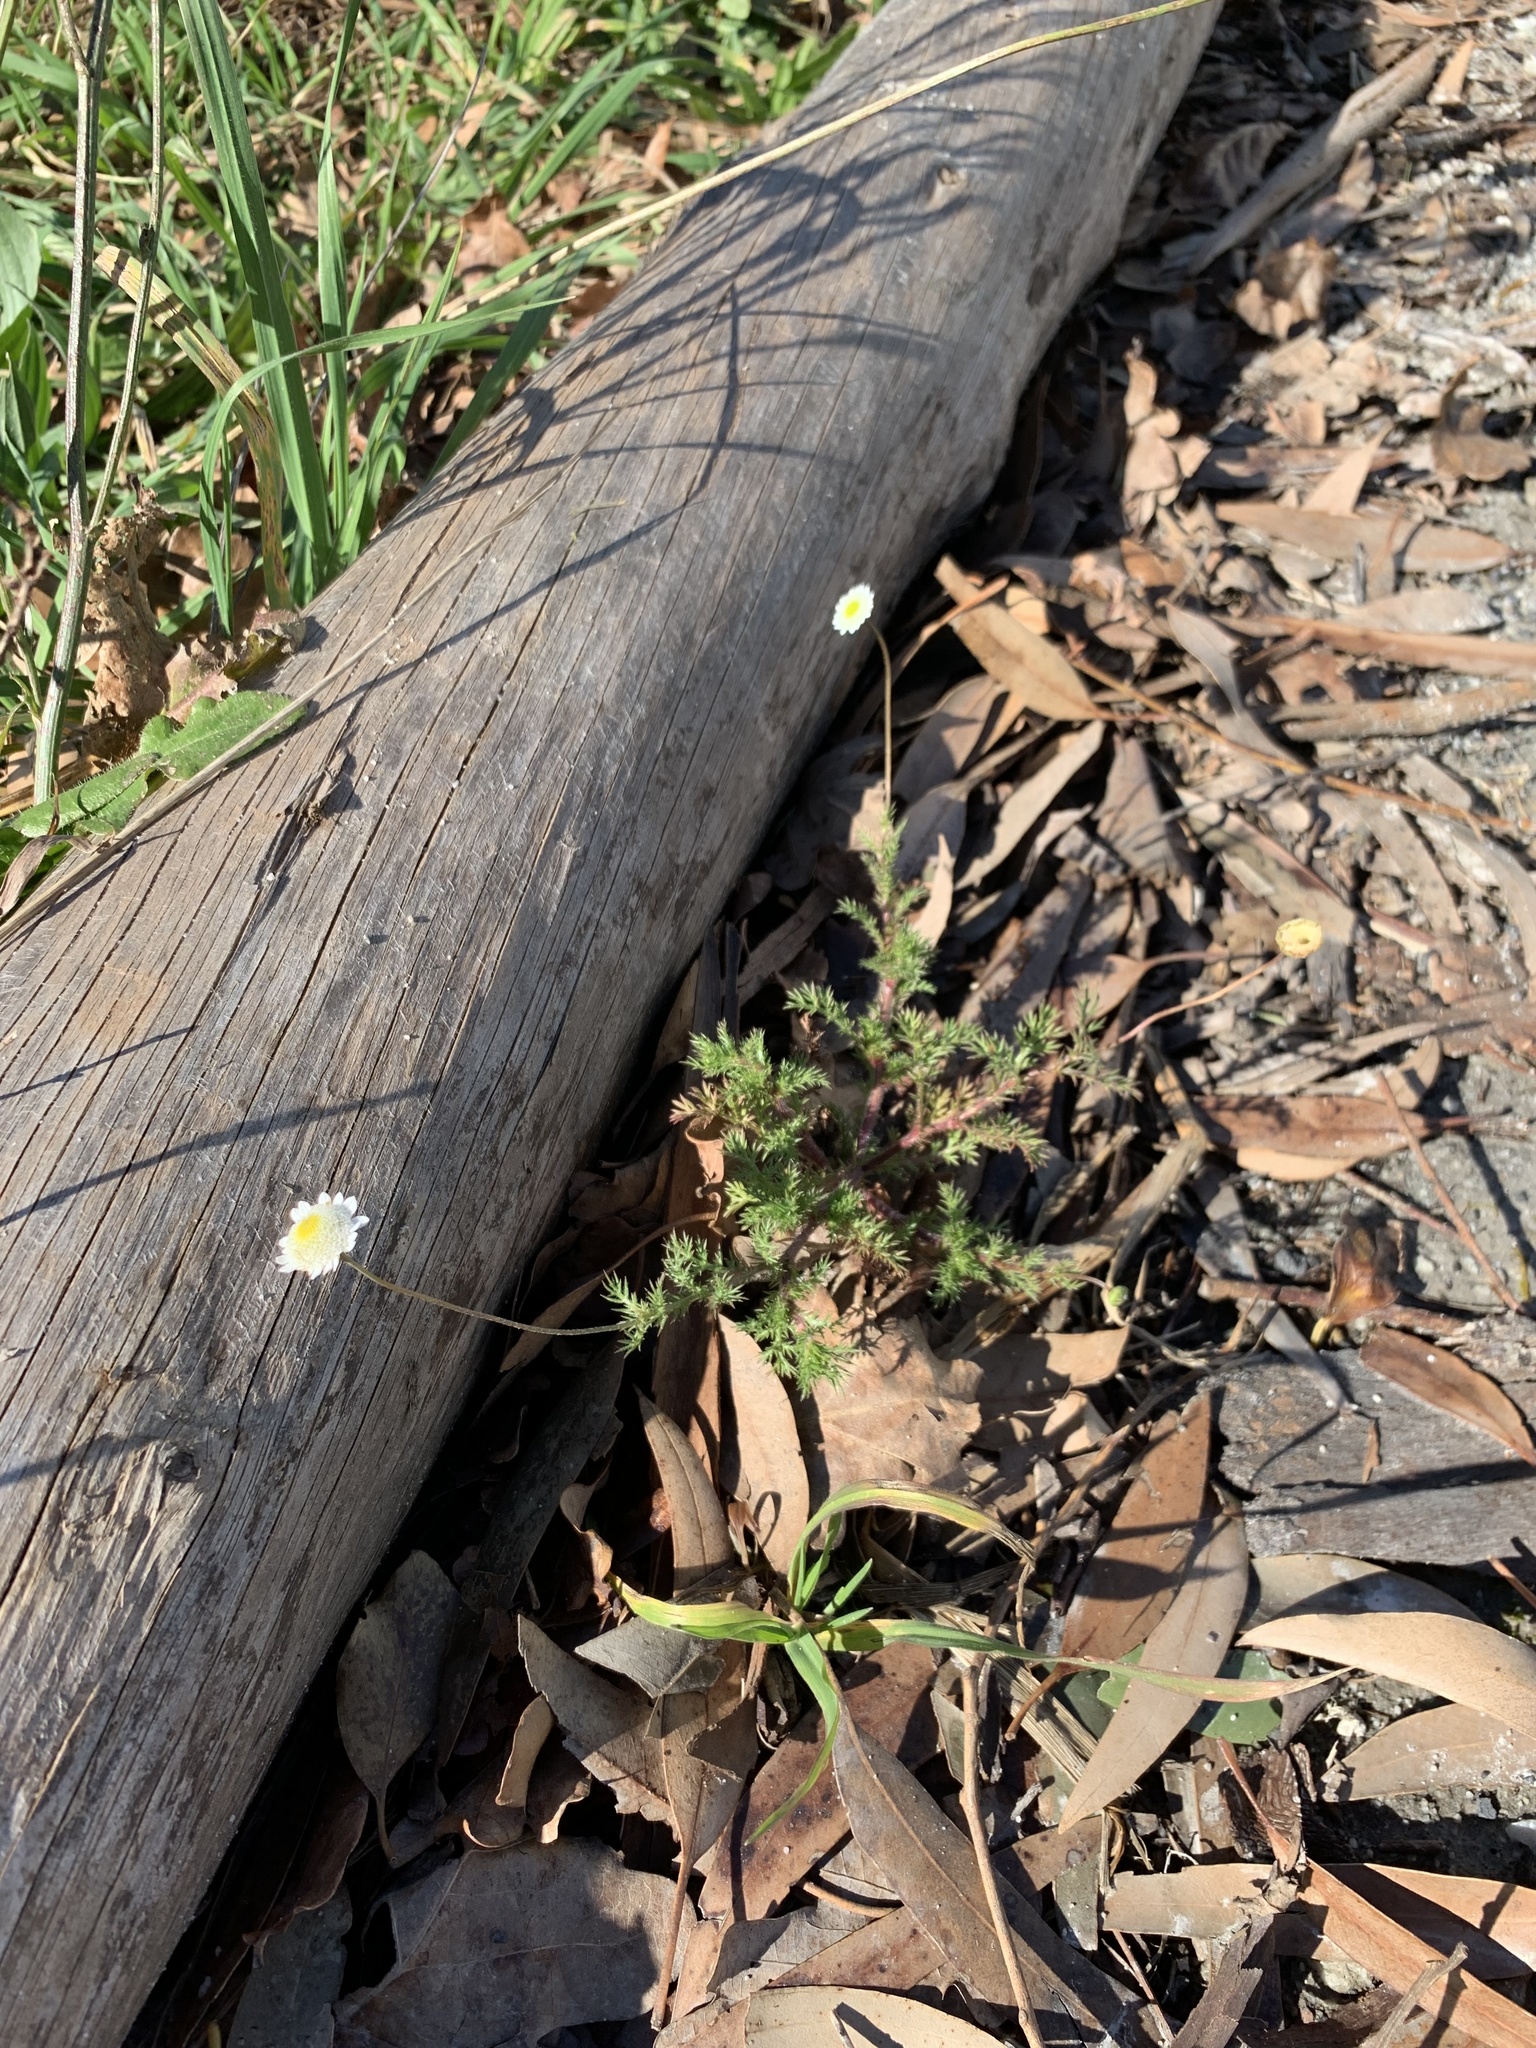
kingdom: Plantae
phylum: Tracheophyta
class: Magnoliopsida
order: Asterales
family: Asteraceae
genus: Cotula
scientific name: Cotula turbinata
